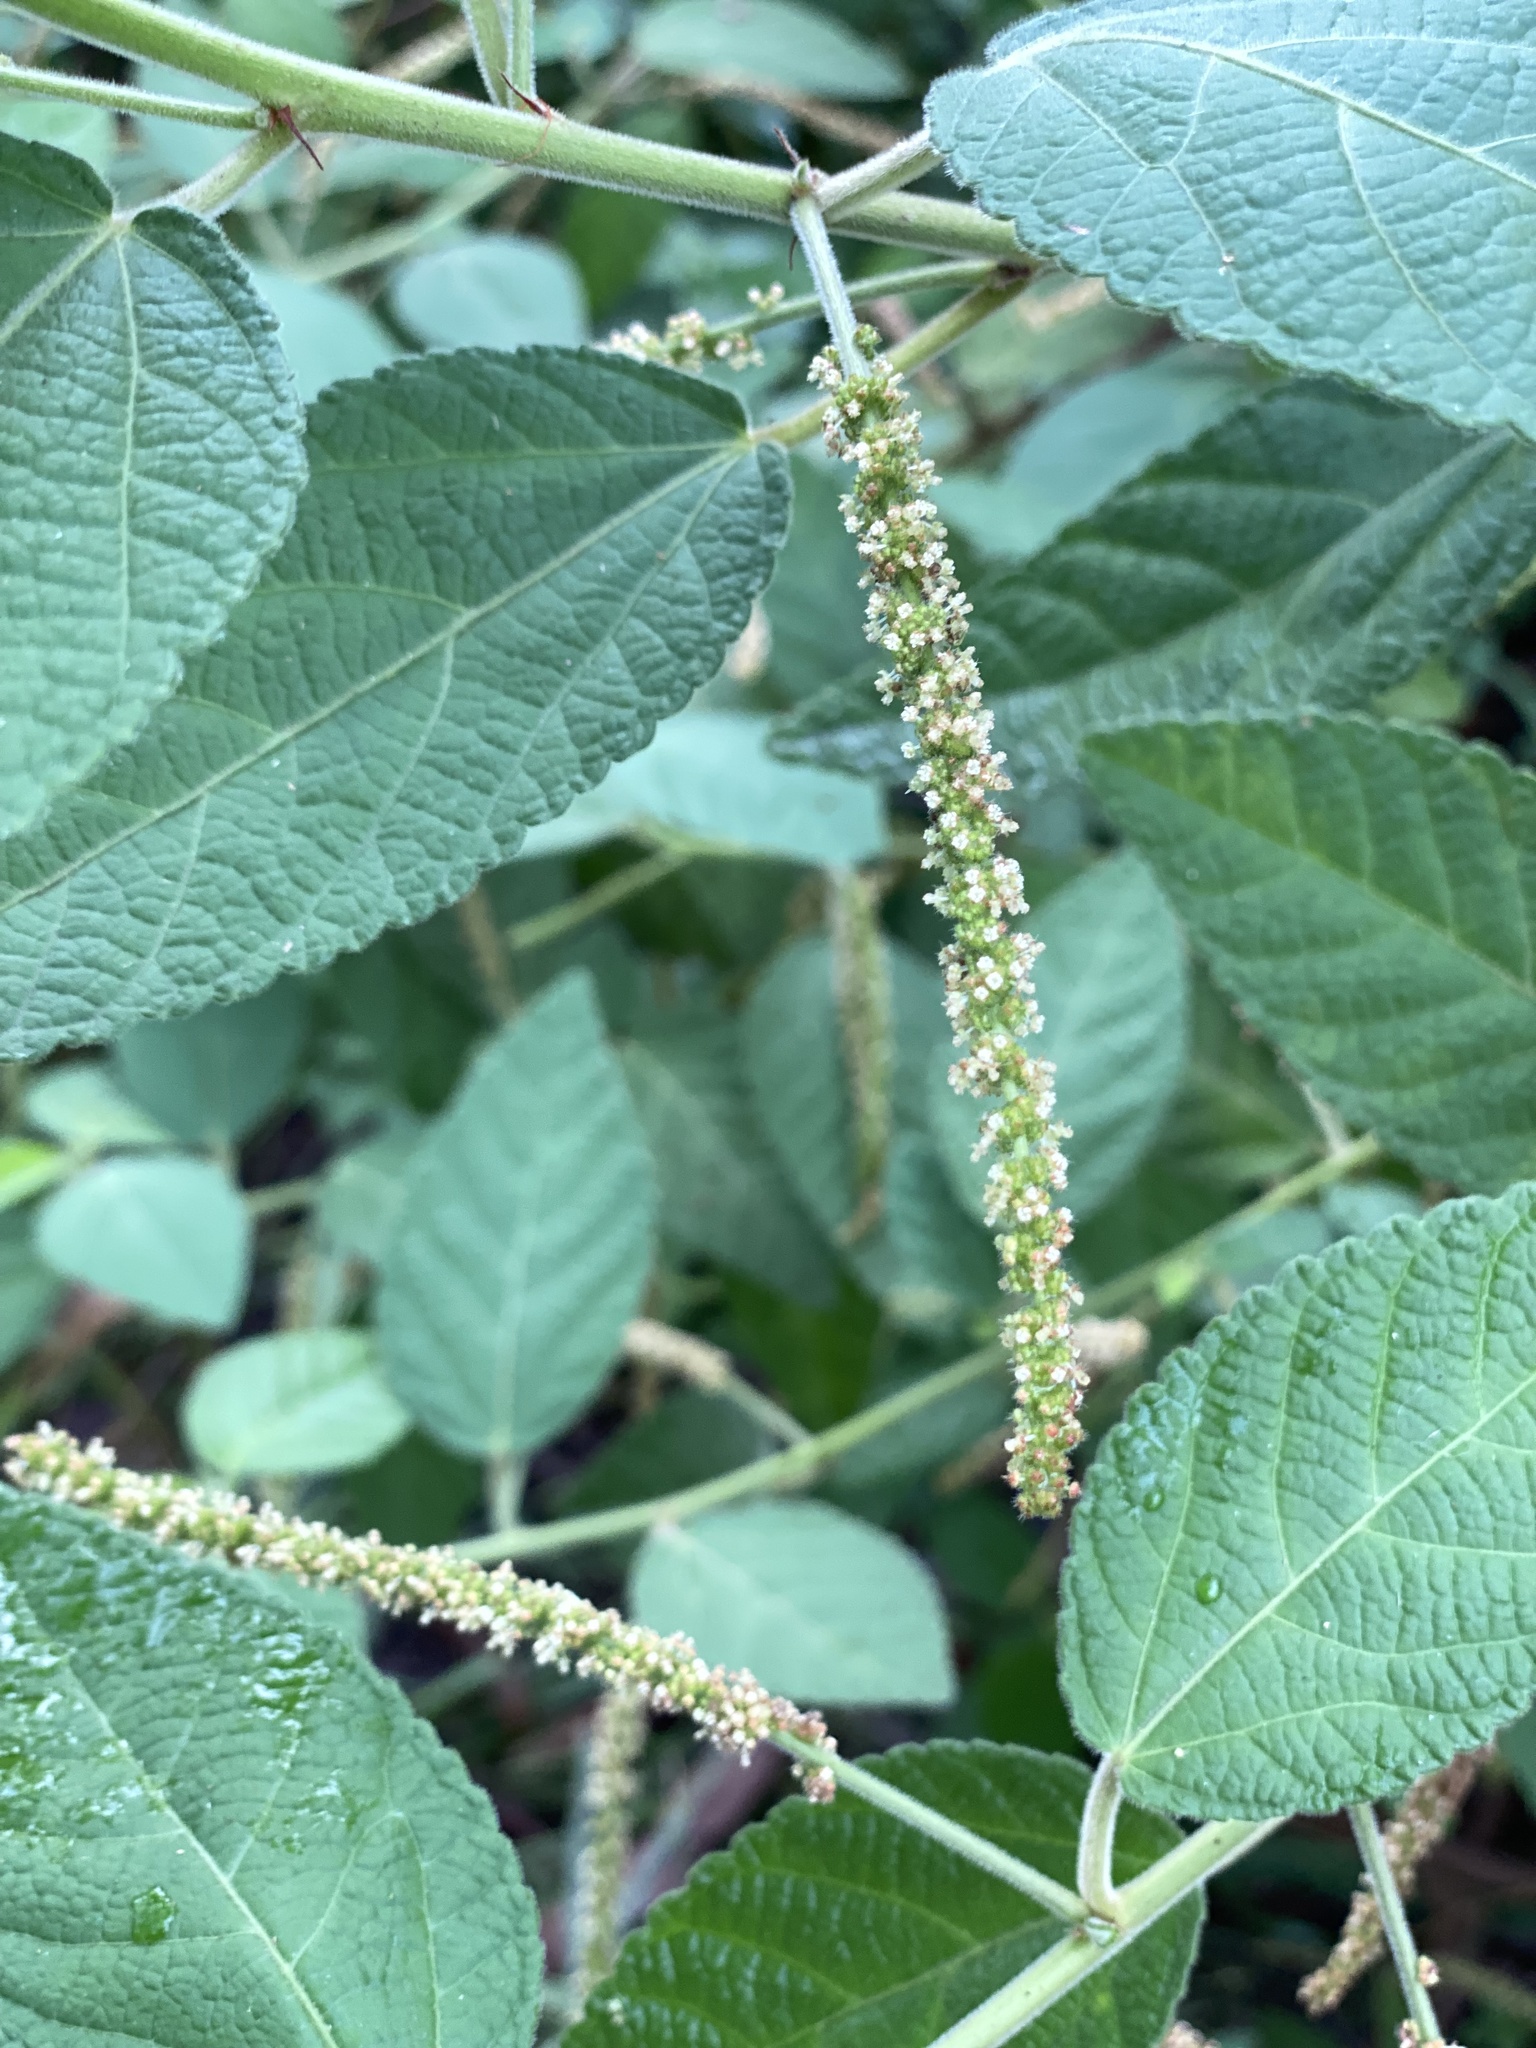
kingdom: Plantae
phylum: Tracheophyta
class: Magnoliopsida
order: Malpighiales
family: Euphorbiaceae
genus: Acalypha
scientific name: Acalypha nemorum
